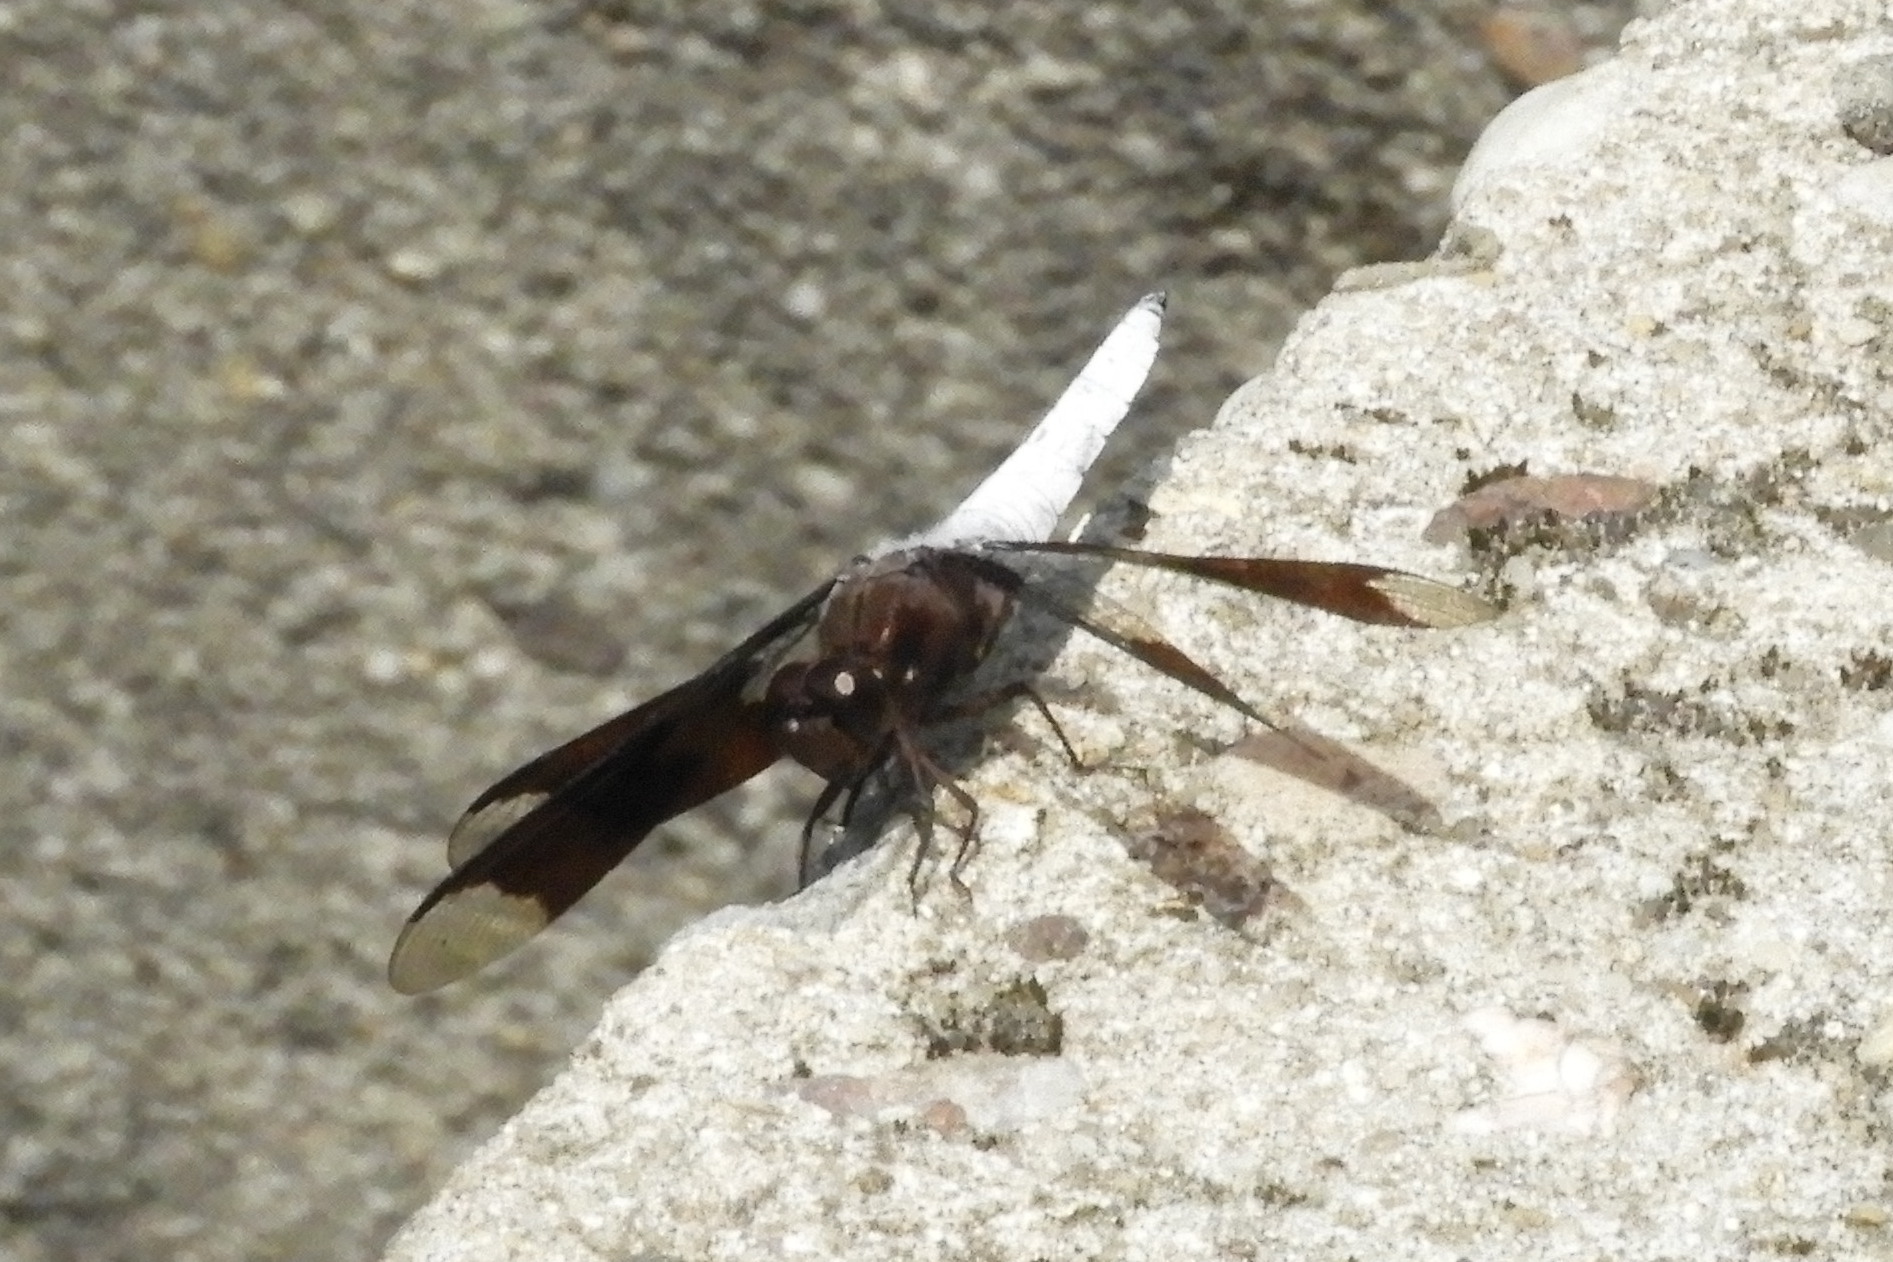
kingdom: Animalia
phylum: Arthropoda
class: Insecta
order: Odonata
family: Libellulidae
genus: Plathemis
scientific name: Plathemis lydia
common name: Common whitetail
